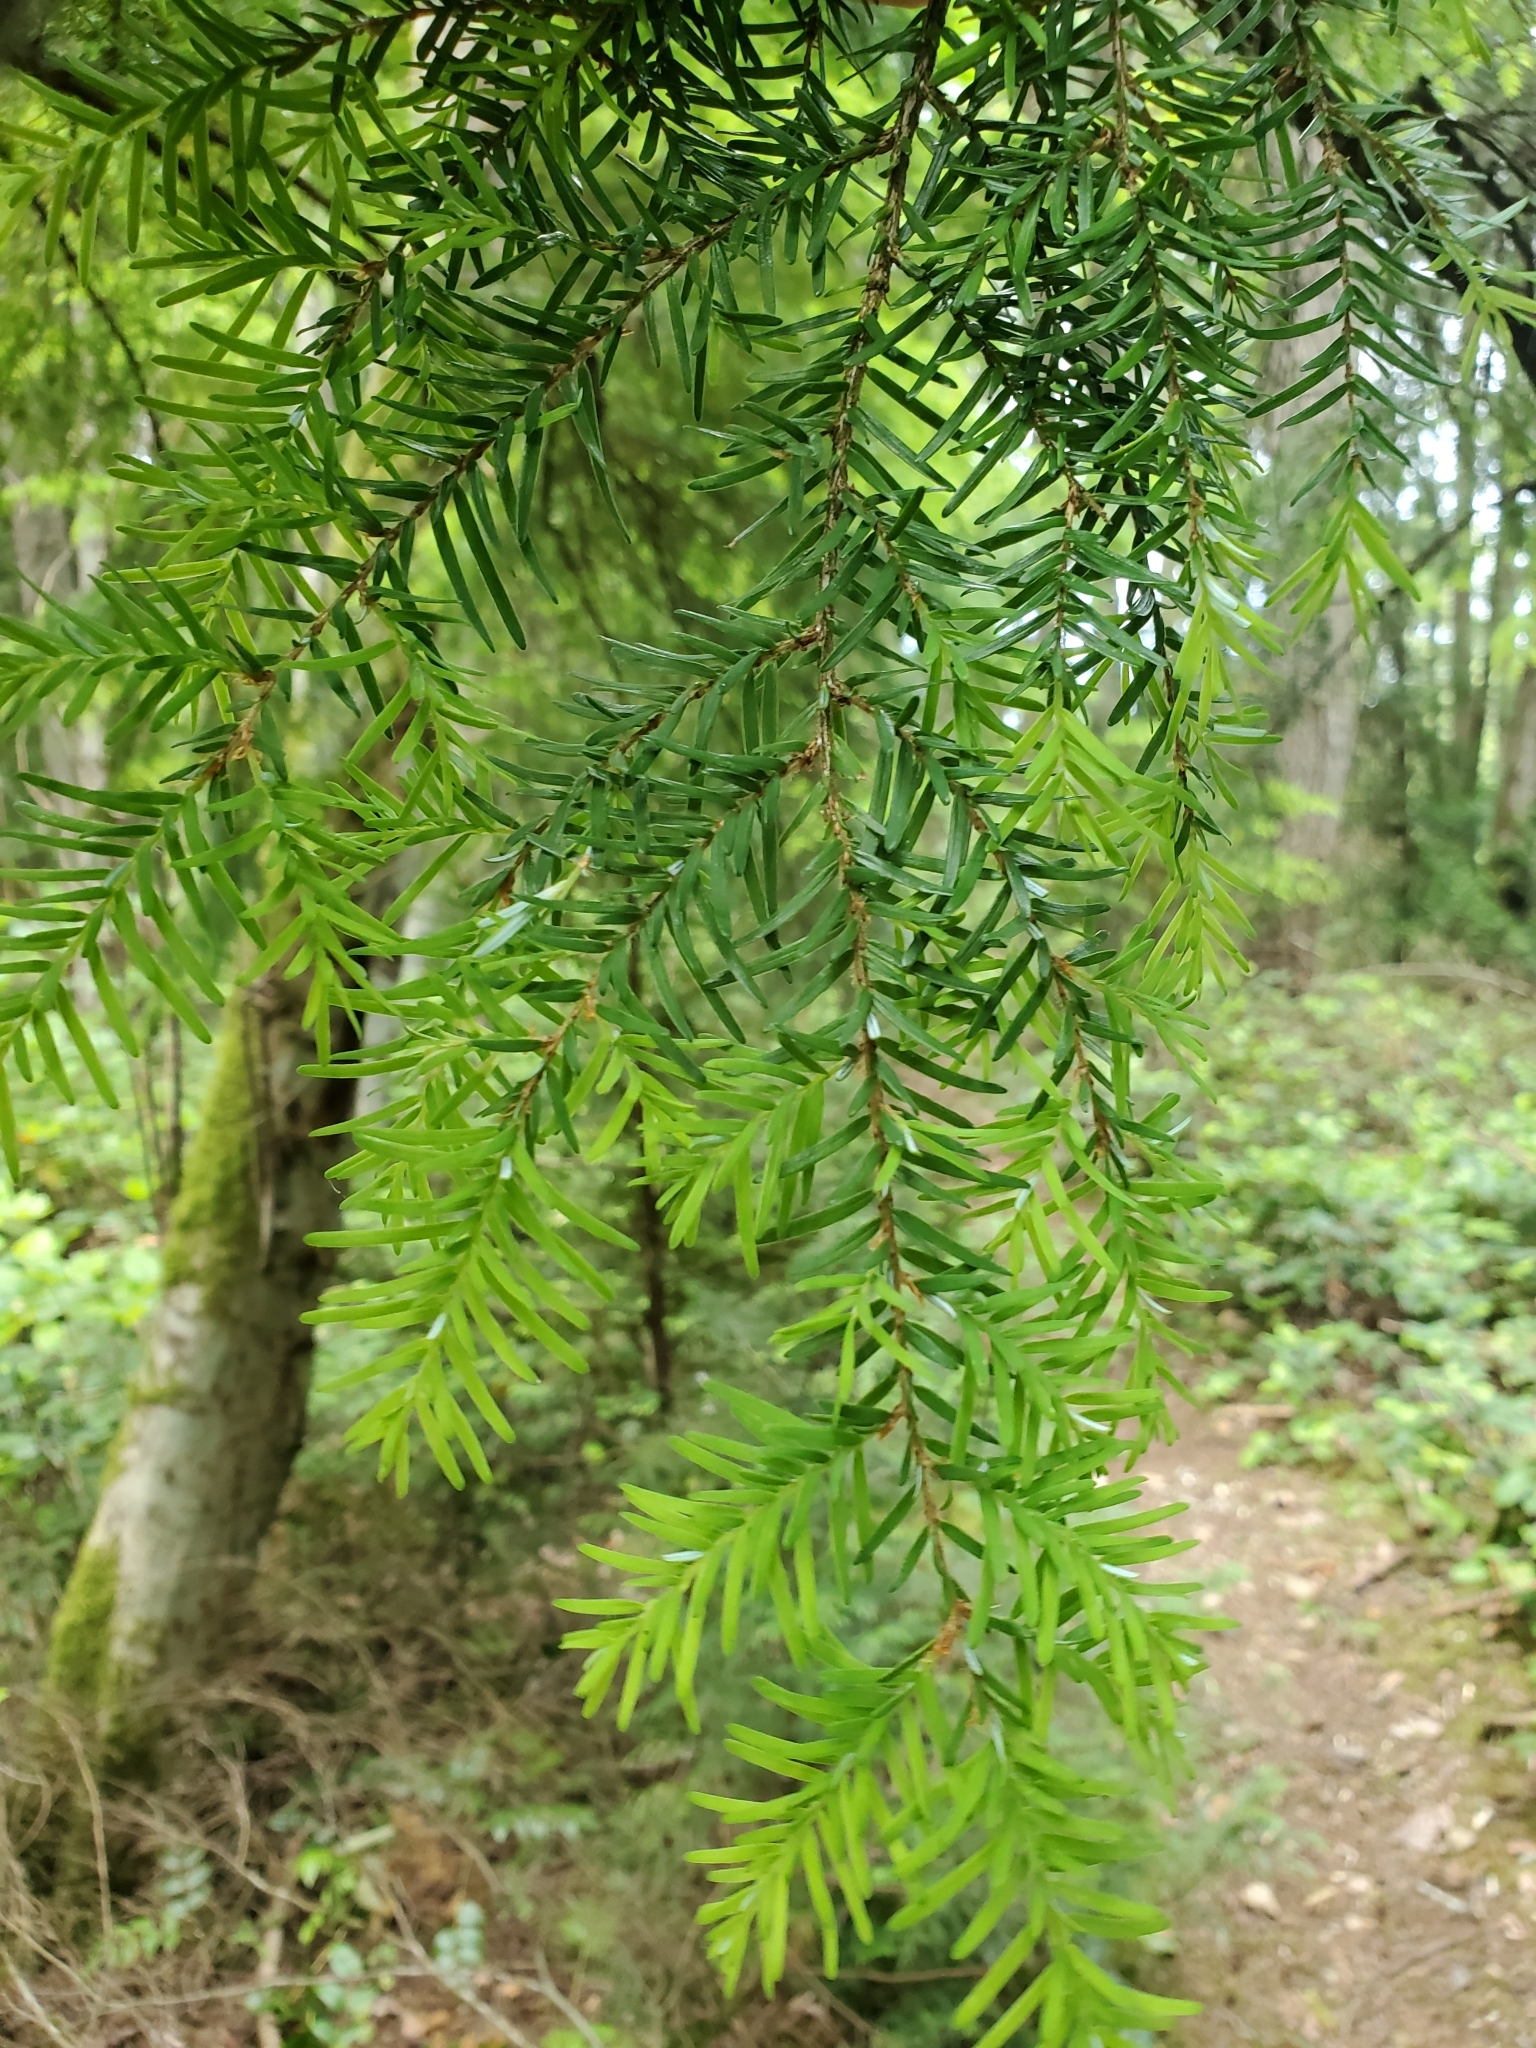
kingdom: Plantae
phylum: Tracheophyta
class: Pinopsida
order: Pinales
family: Pinaceae
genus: Tsuga
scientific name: Tsuga heterophylla
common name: Western hemlock
